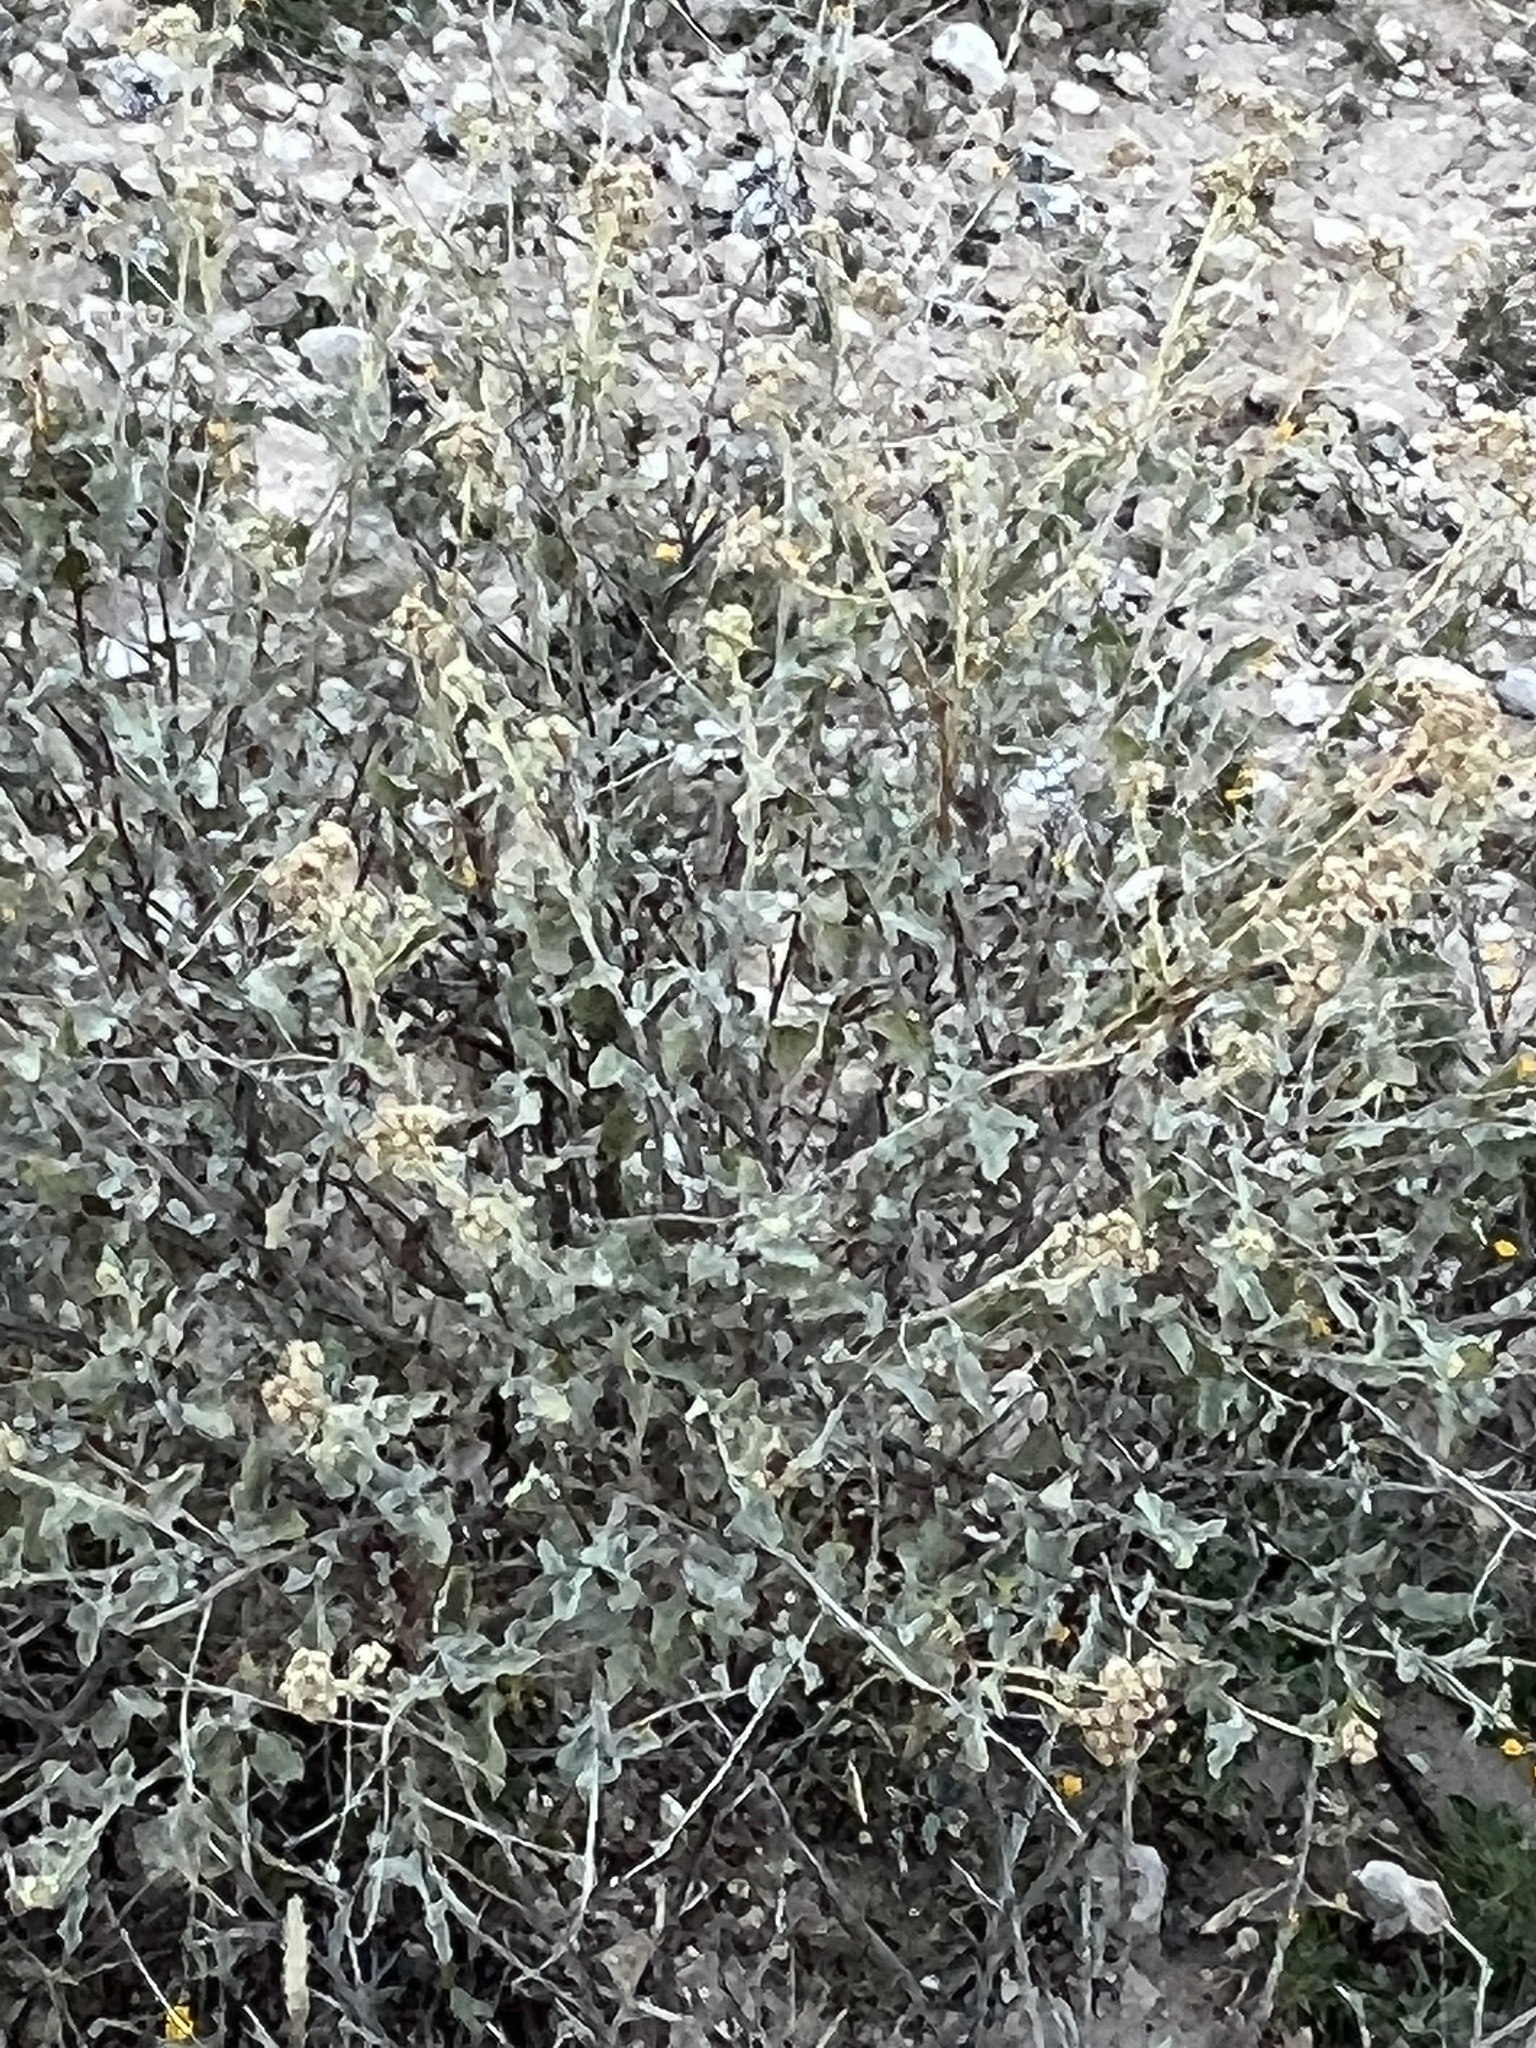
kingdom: Plantae
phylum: Tracheophyta
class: Magnoliopsida
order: Asterales
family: Asteraceae
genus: Parthenium
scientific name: Parthenium incanum
